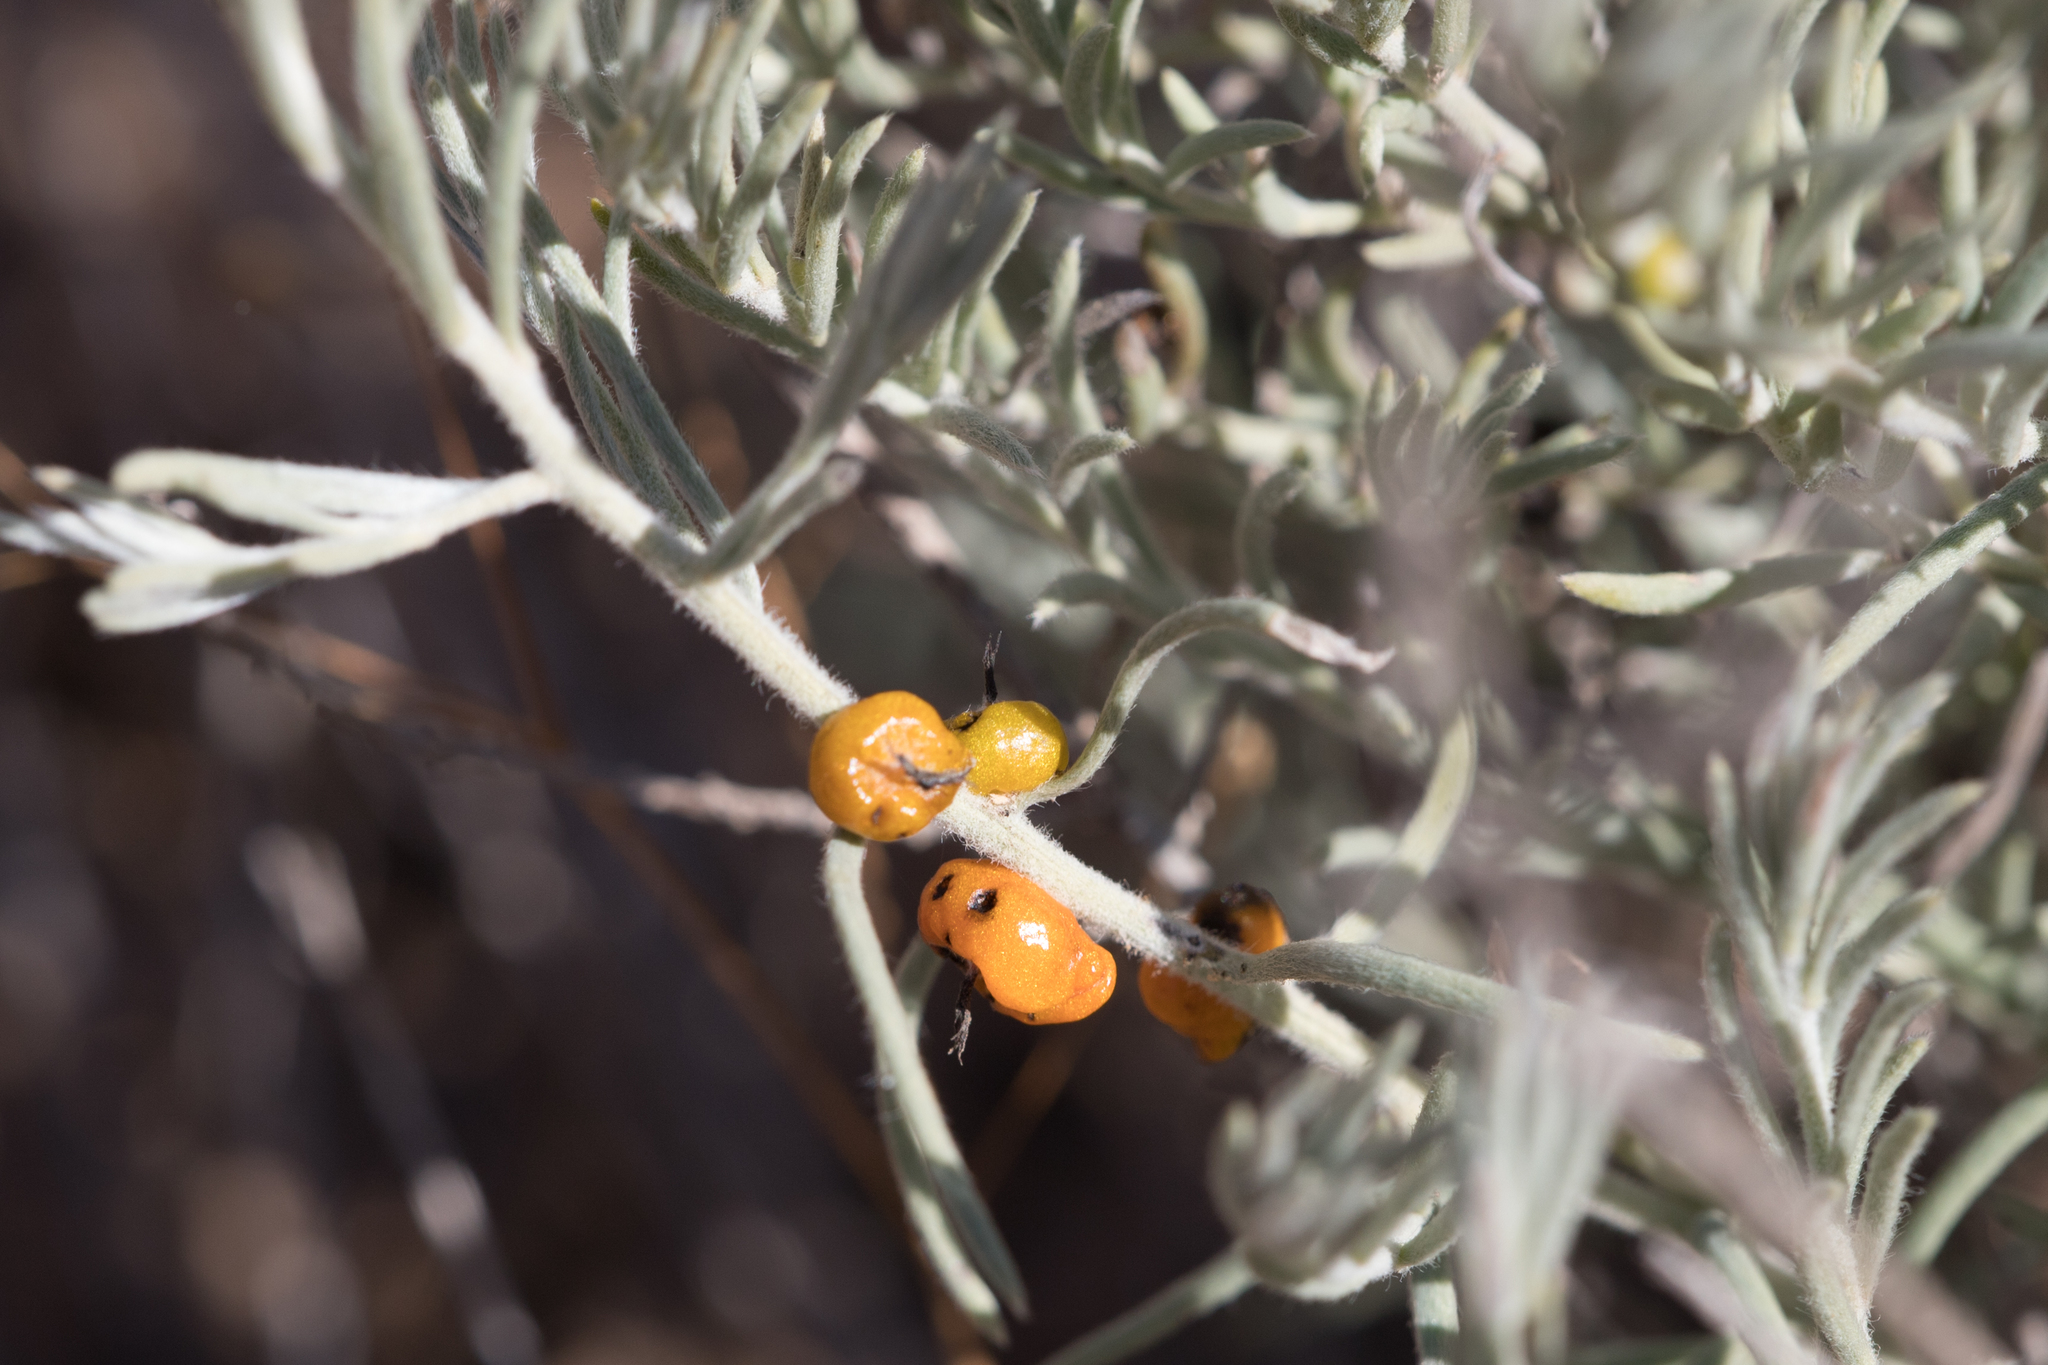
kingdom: Plantae
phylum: Tracheophyta
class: Magnoliopsida
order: Caryophyllales
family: Amaranthaceae
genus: Enchylaena
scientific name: Enchylaena tomentosa
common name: Ruby saltbush
